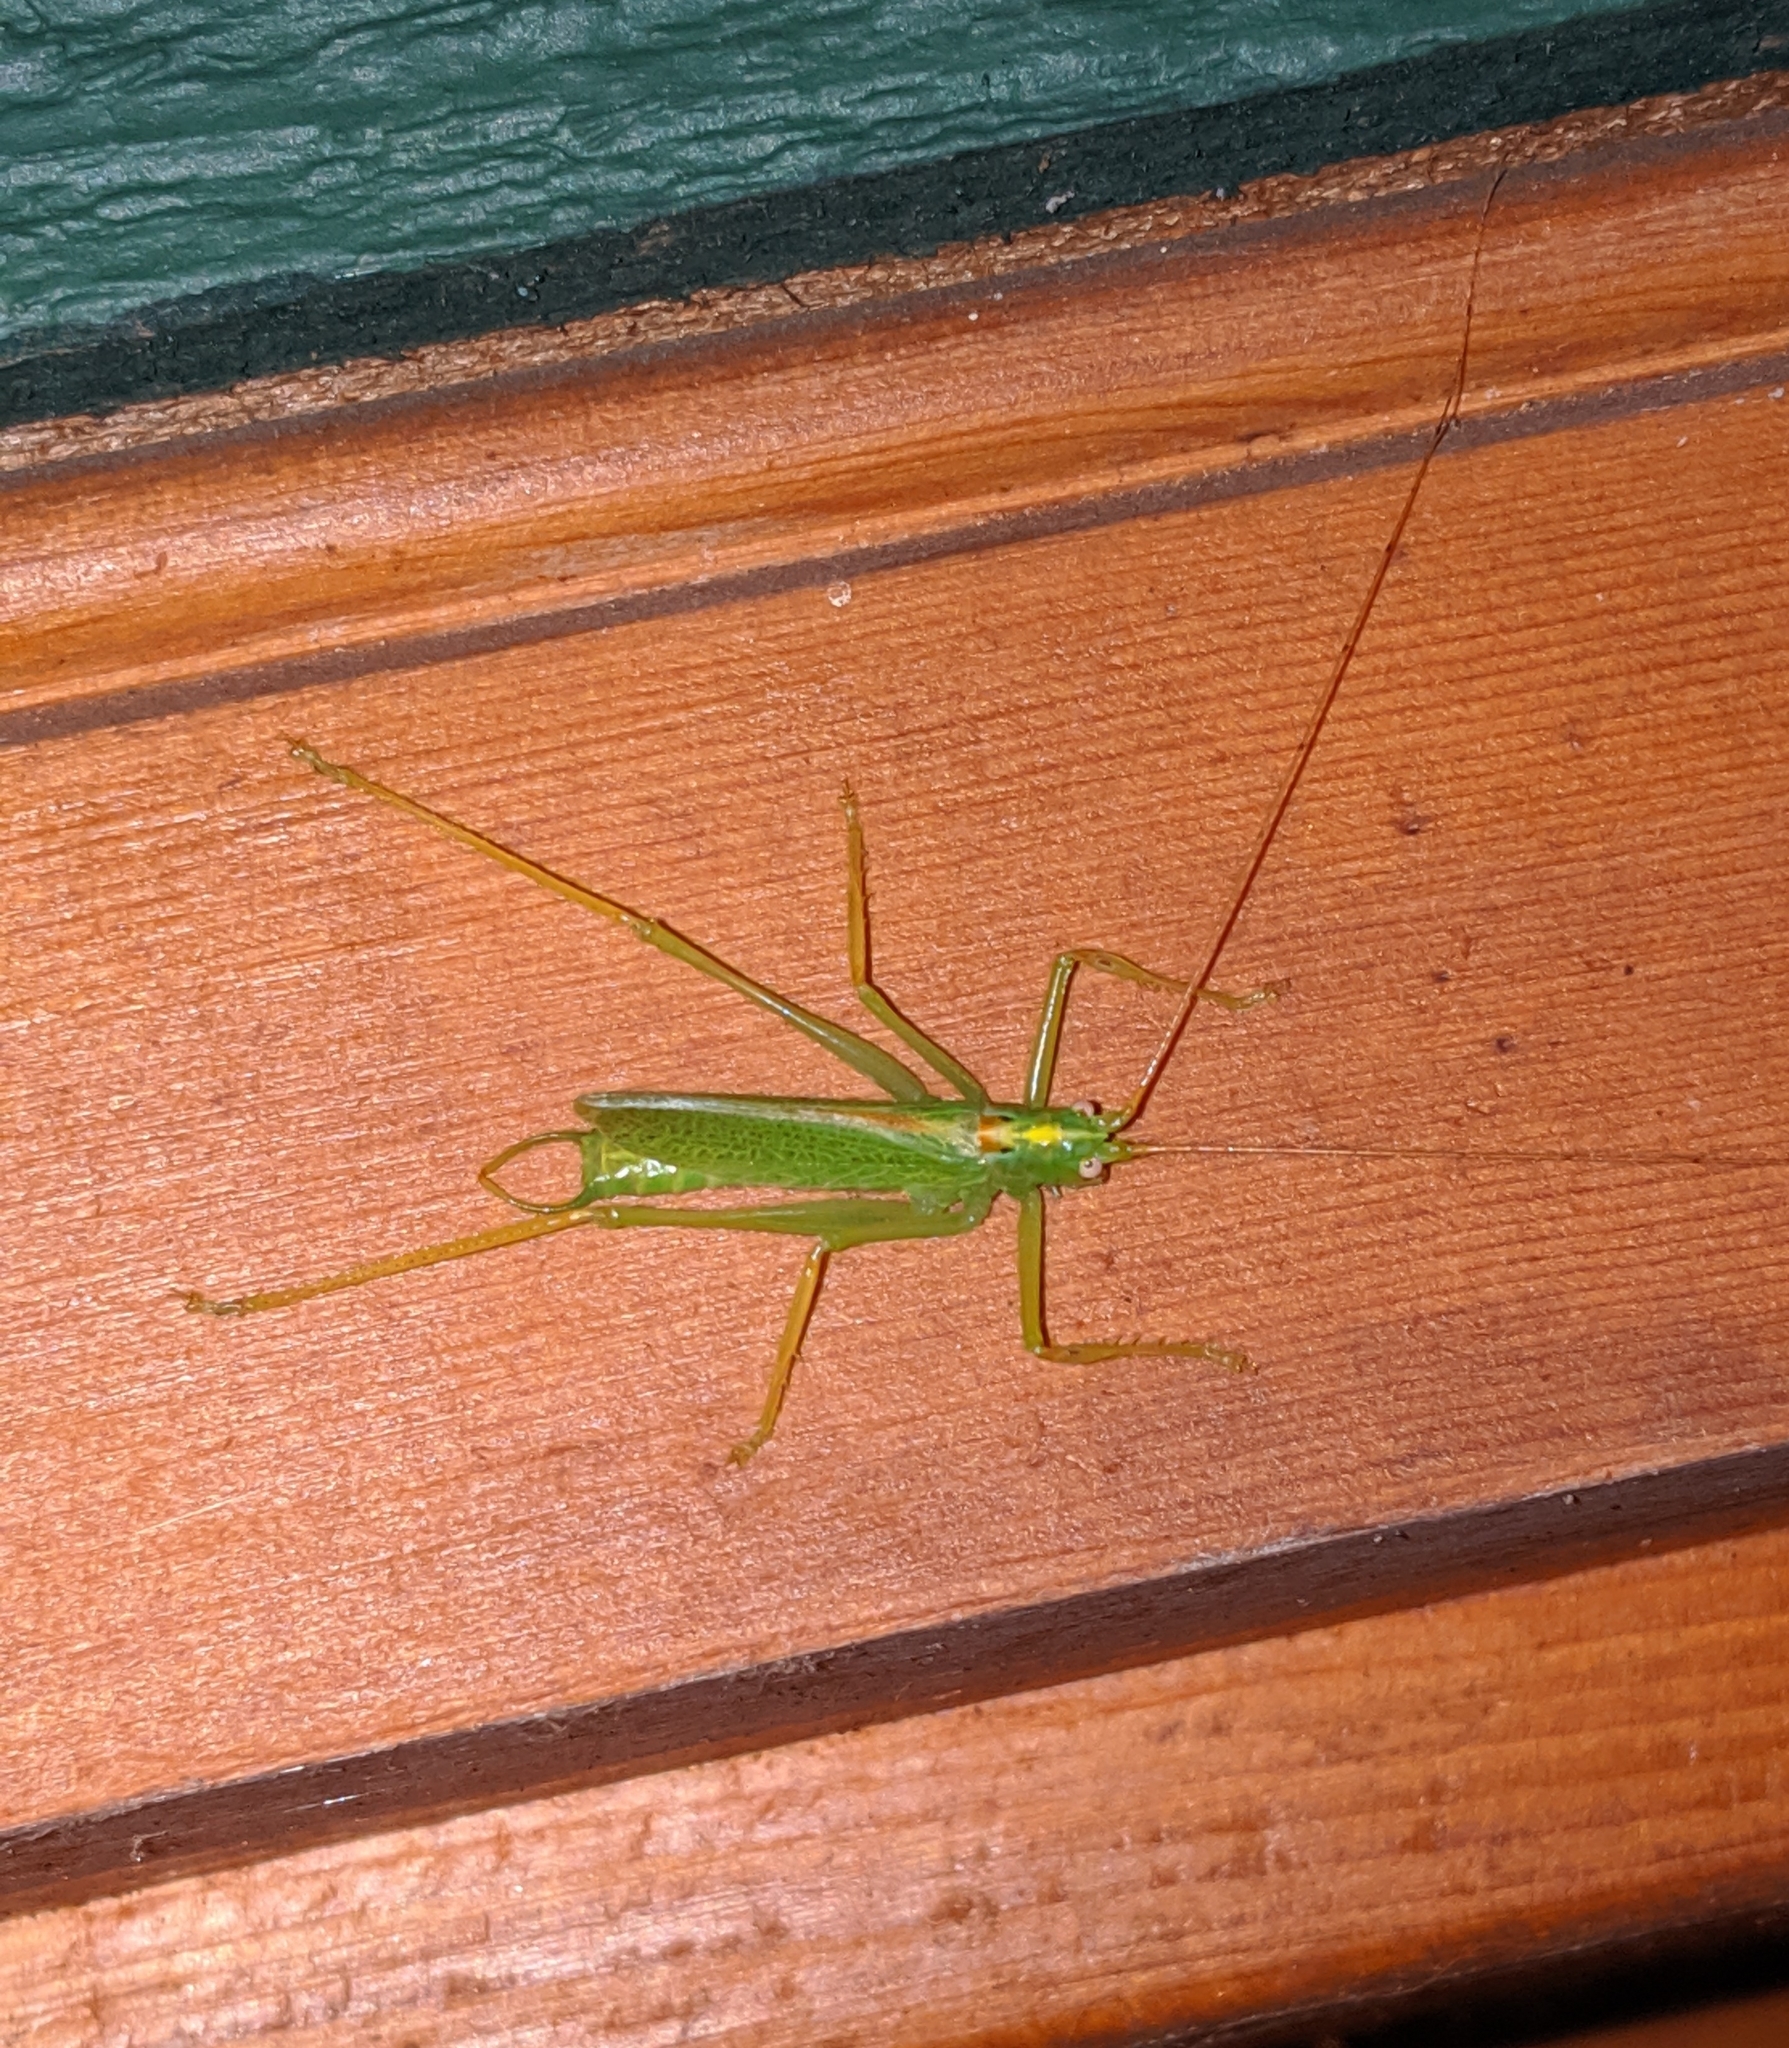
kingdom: Animalia
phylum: Arthropoda
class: Insecta
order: Orthoptera
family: Tettigoniidae
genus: Meconema
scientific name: Meconema thalassinum
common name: Oak bush-cricket
